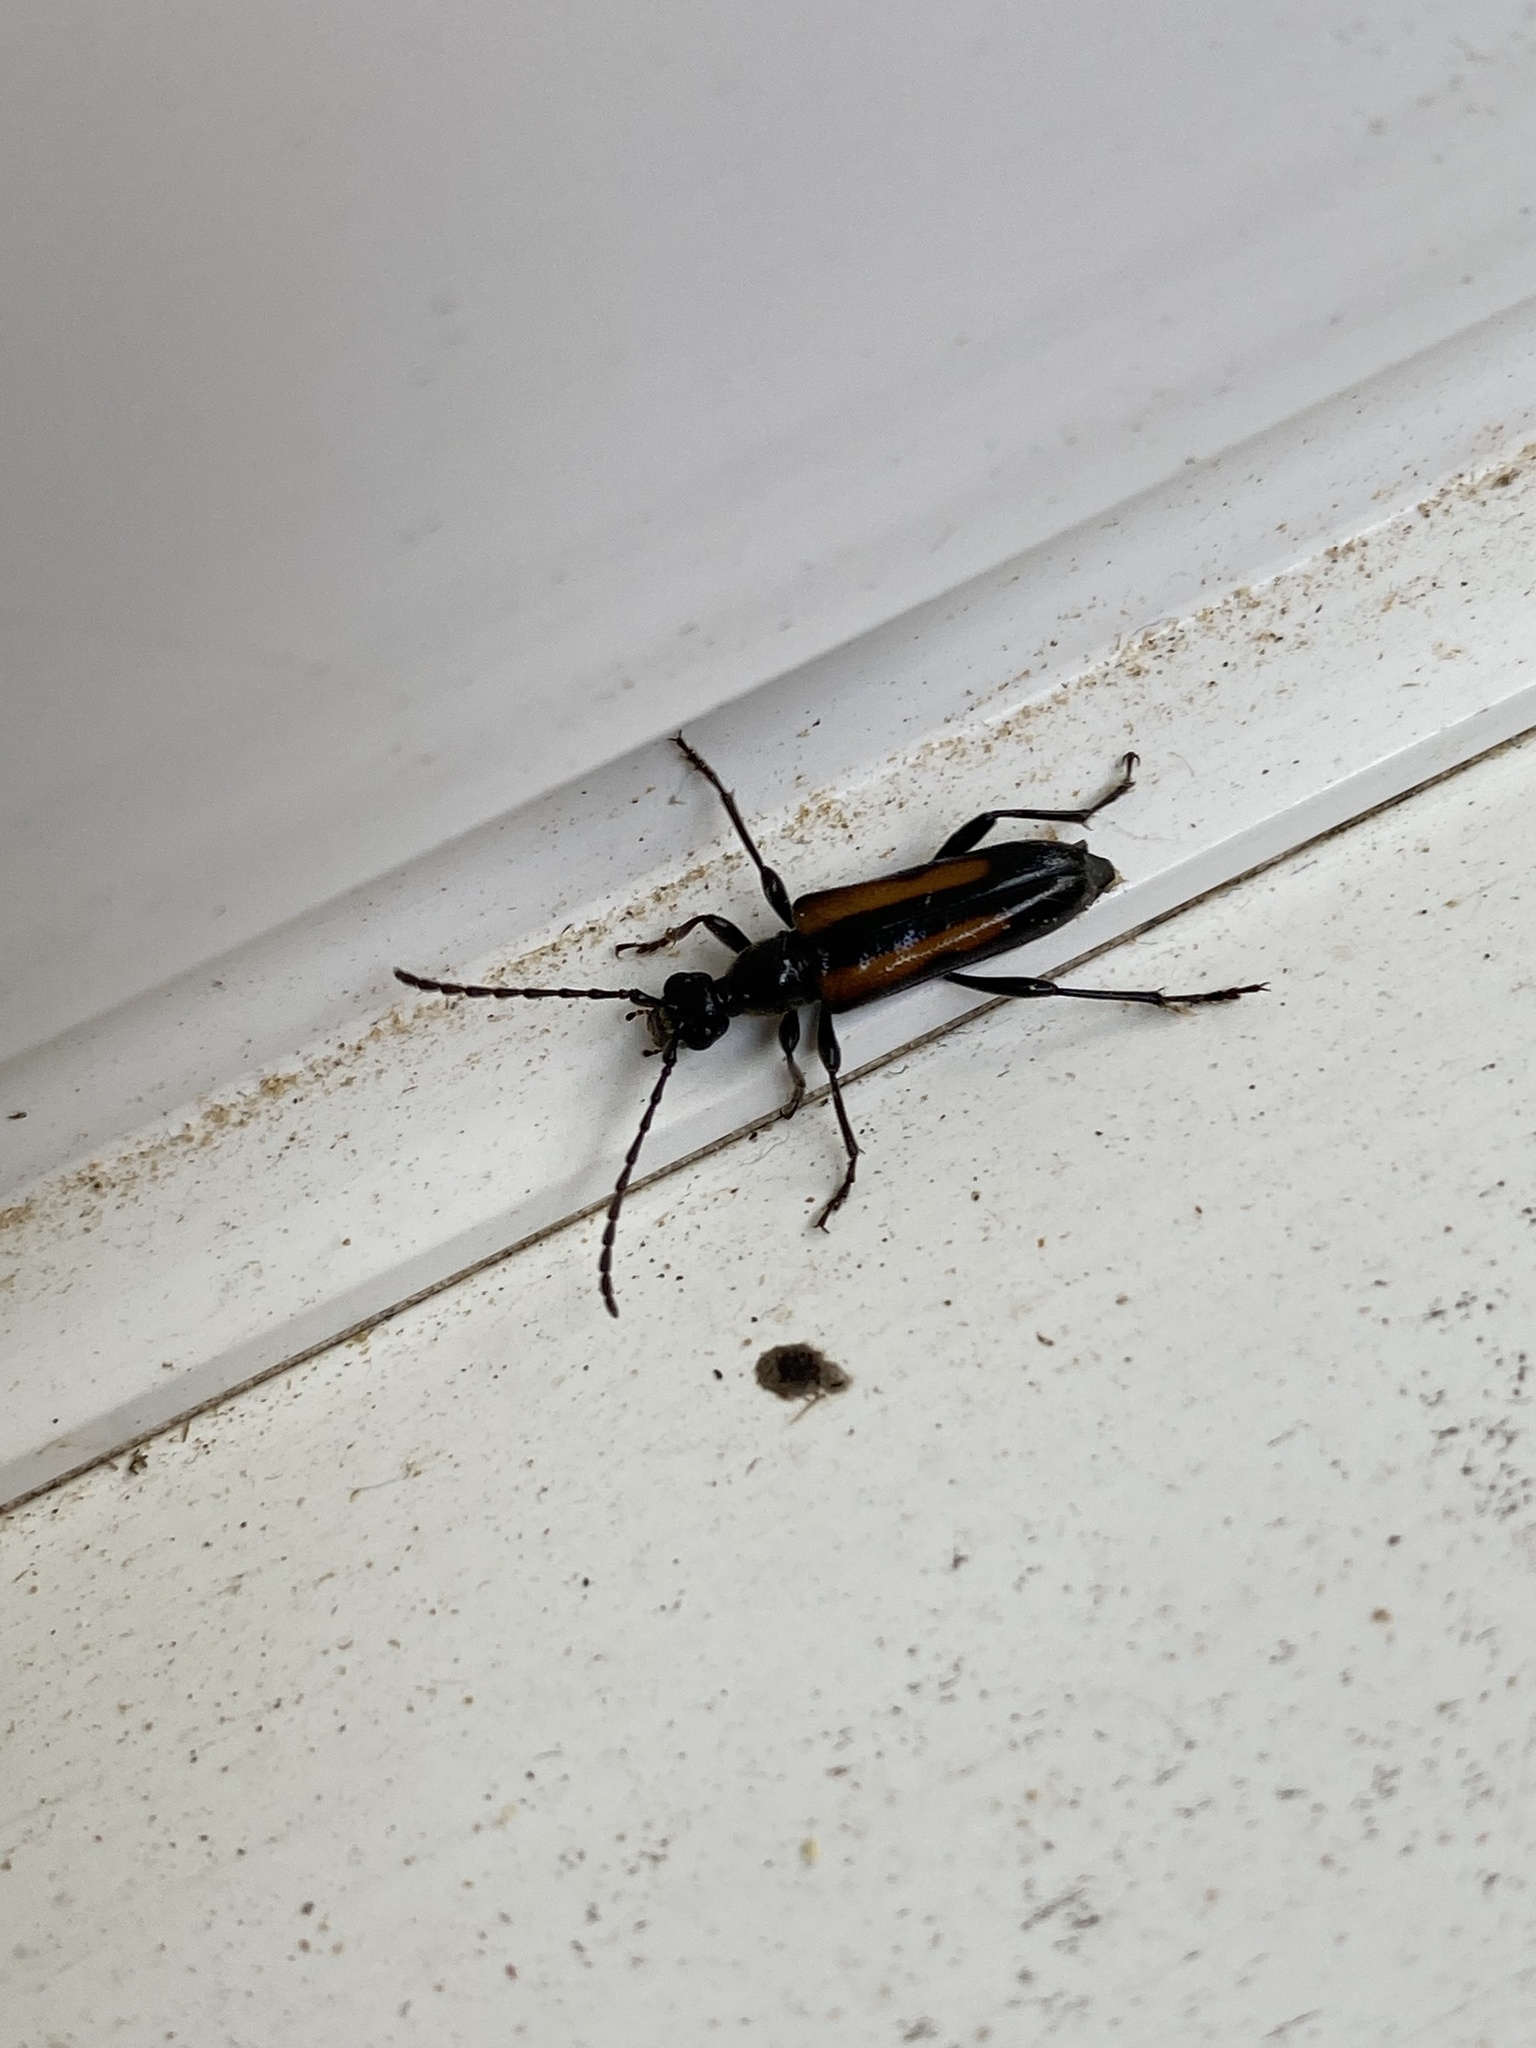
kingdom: Animalia
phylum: Arthropoda
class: Insecta
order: Coleoptera
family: Cerambycidae
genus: Strangalepta
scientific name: Strangalepta abbreviata
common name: Strangalepta flower longhorn beetle
